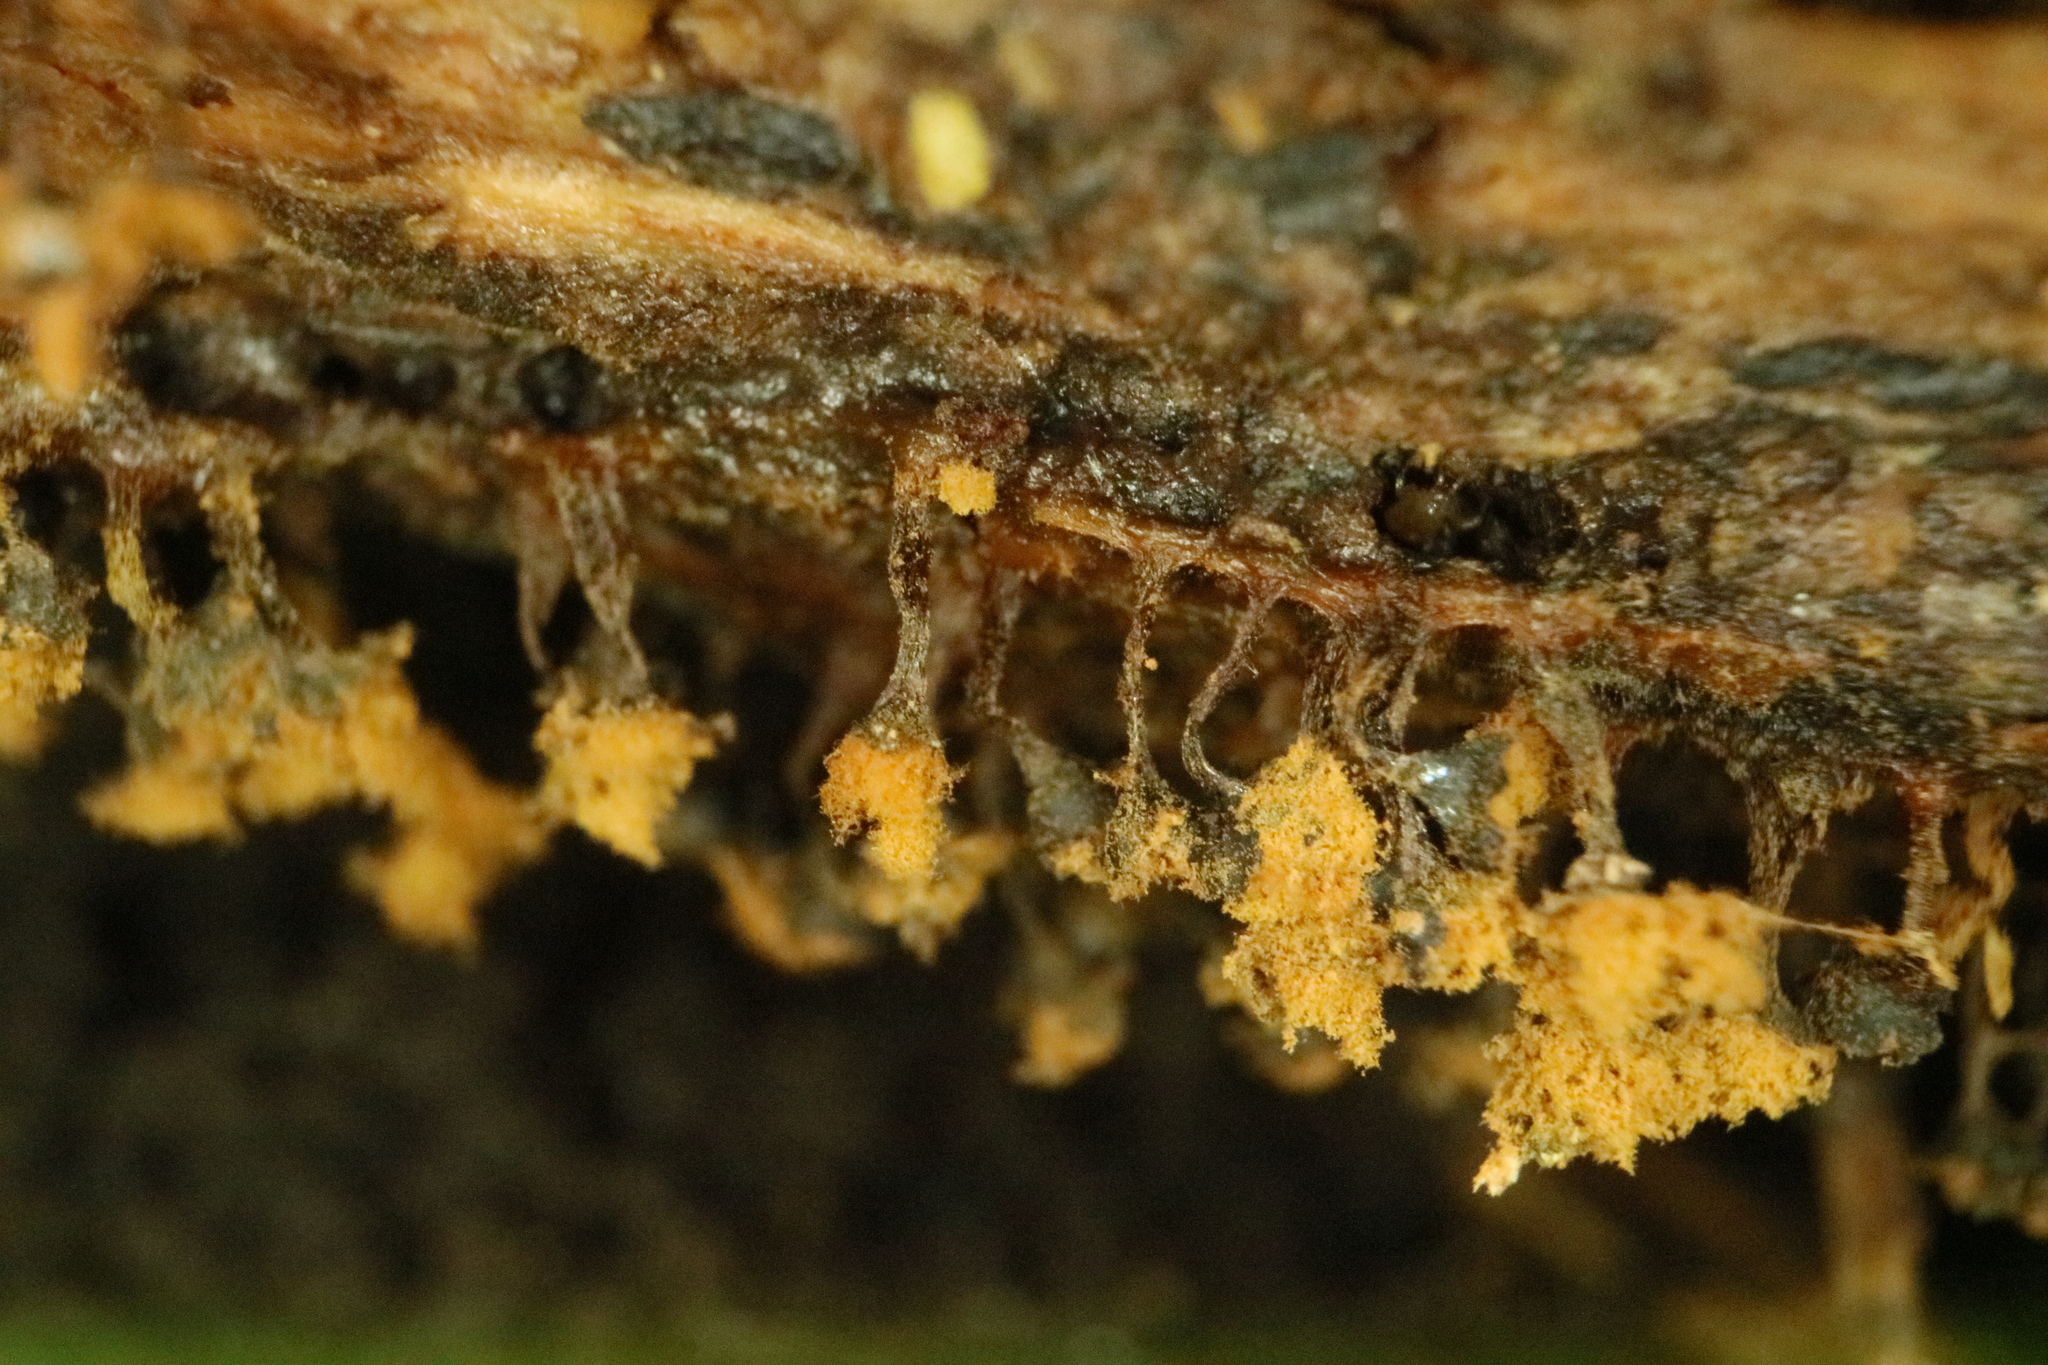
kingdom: Protozoa
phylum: Mycetozoa
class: Myxomycetes
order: Trichiales
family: Trichiaceae
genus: Metatrichia
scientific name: Metatrichia floriformis
